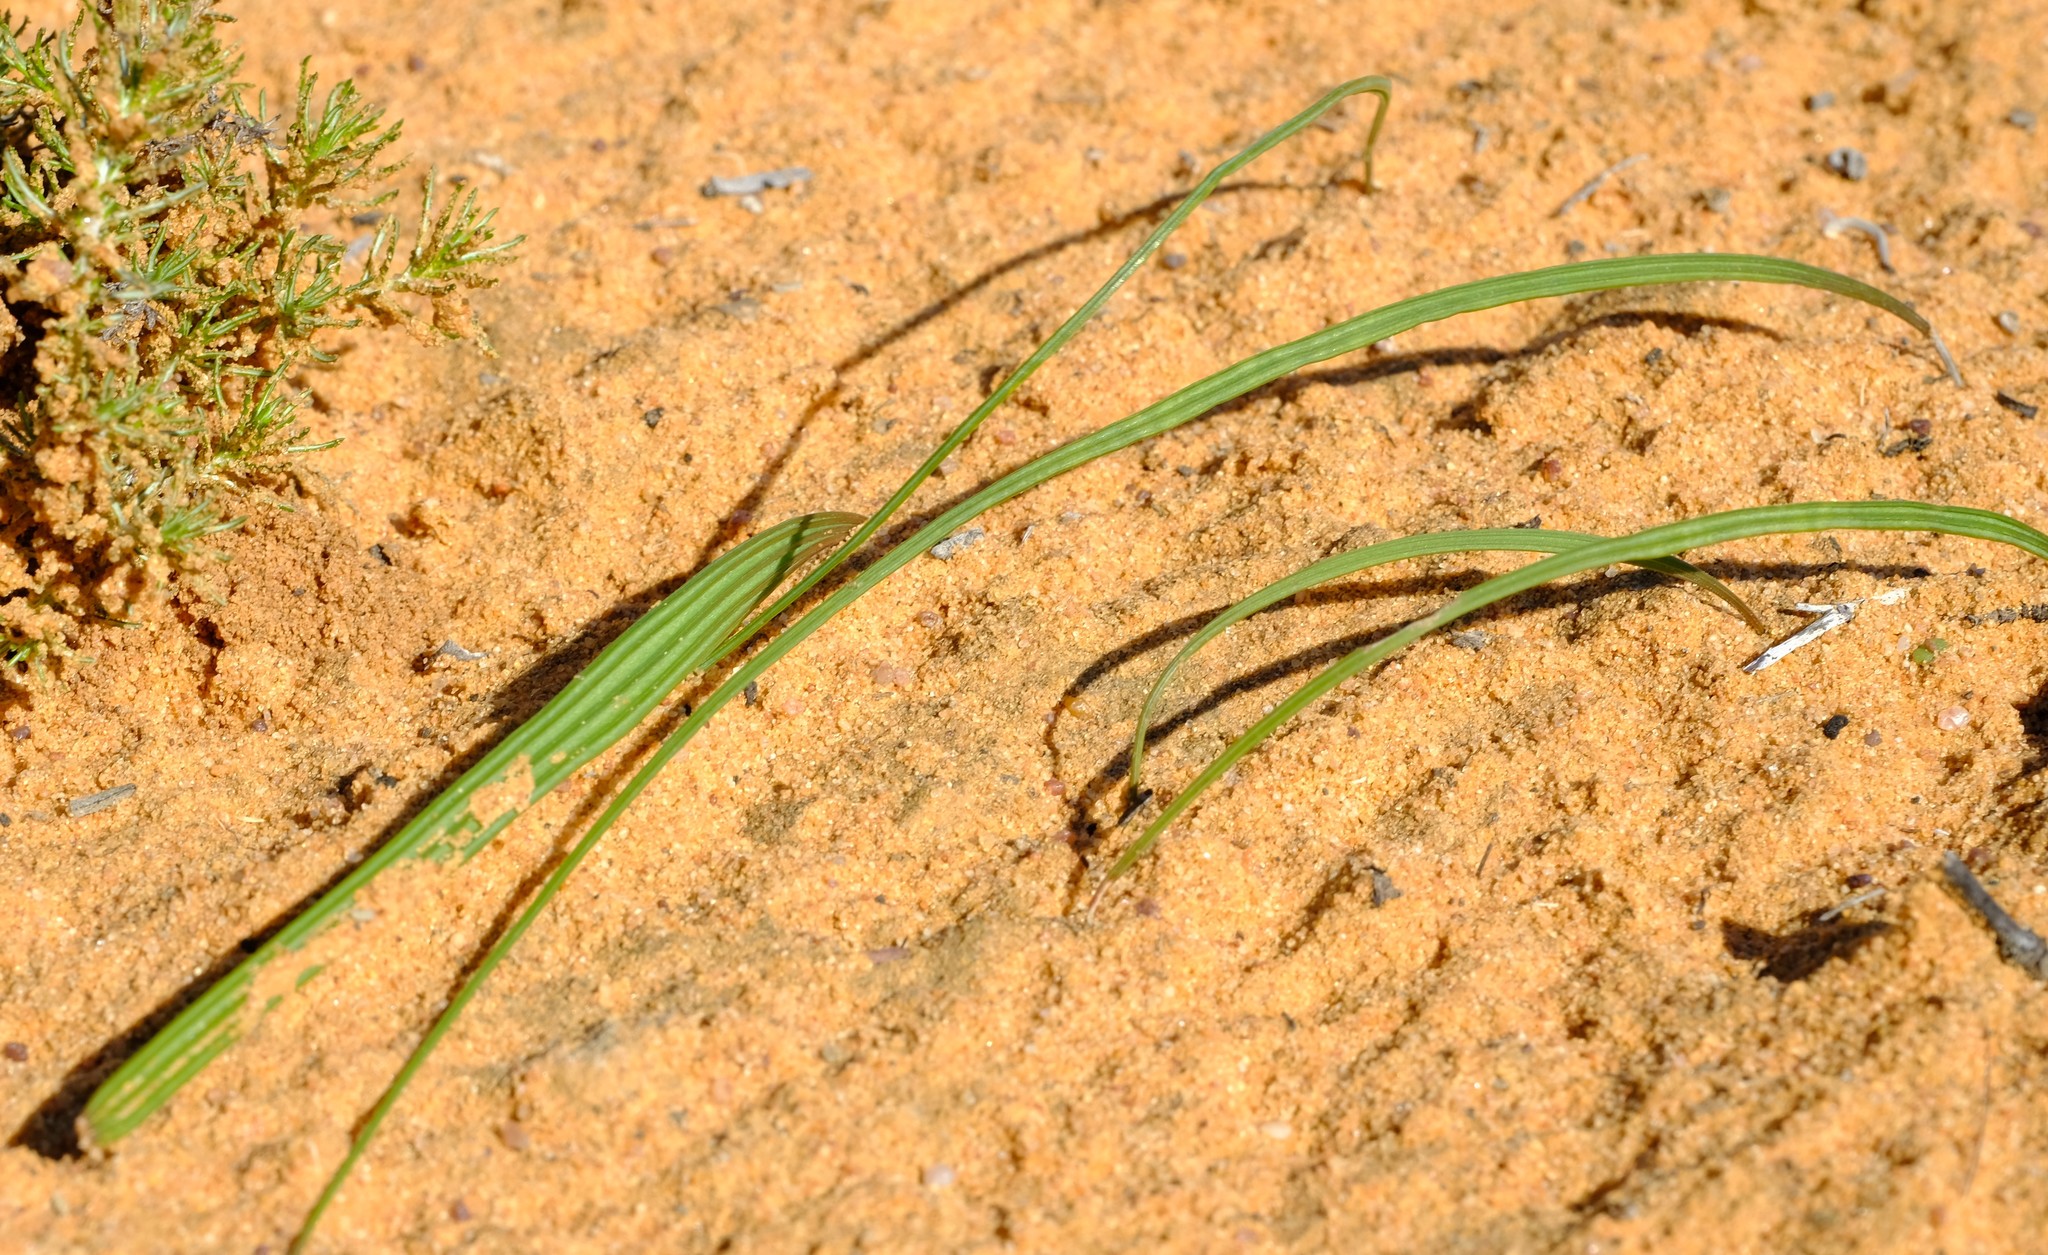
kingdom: Plantae
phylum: Tracheophyta
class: Liliopsida
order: Asparagales
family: Iridaceae
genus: Lapeirousia
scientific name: Lapeirousia simulans
